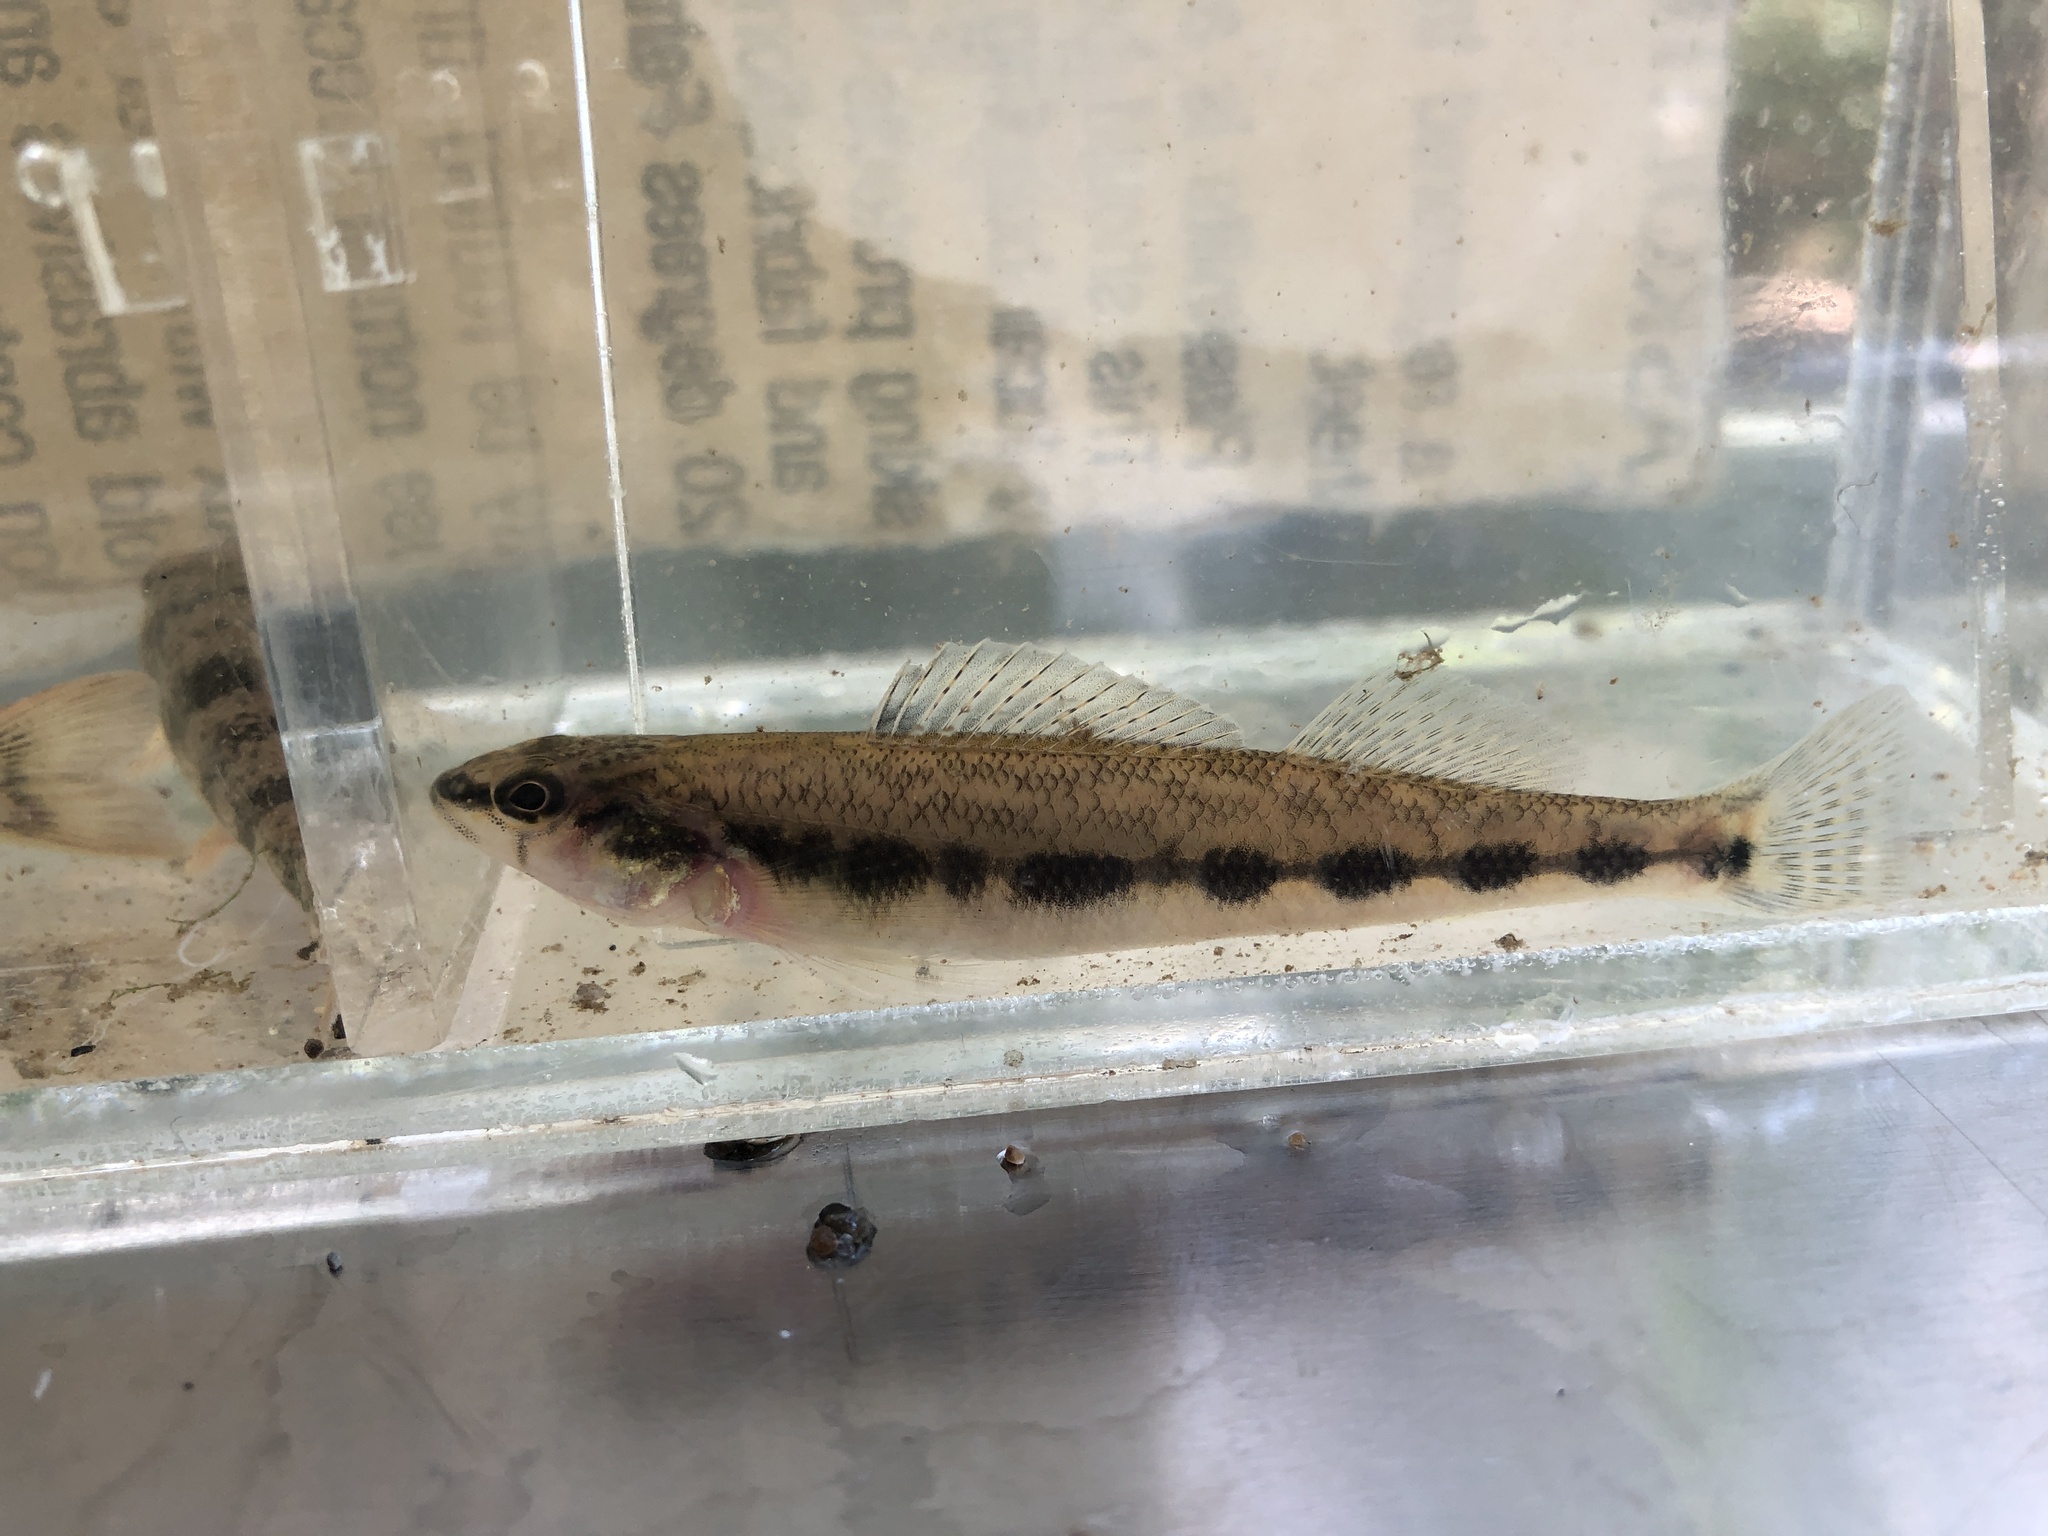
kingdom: Animalia
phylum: Chordata
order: Perciformes
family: Percidae
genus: Percina
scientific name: Percina maculata
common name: Blackside darter
